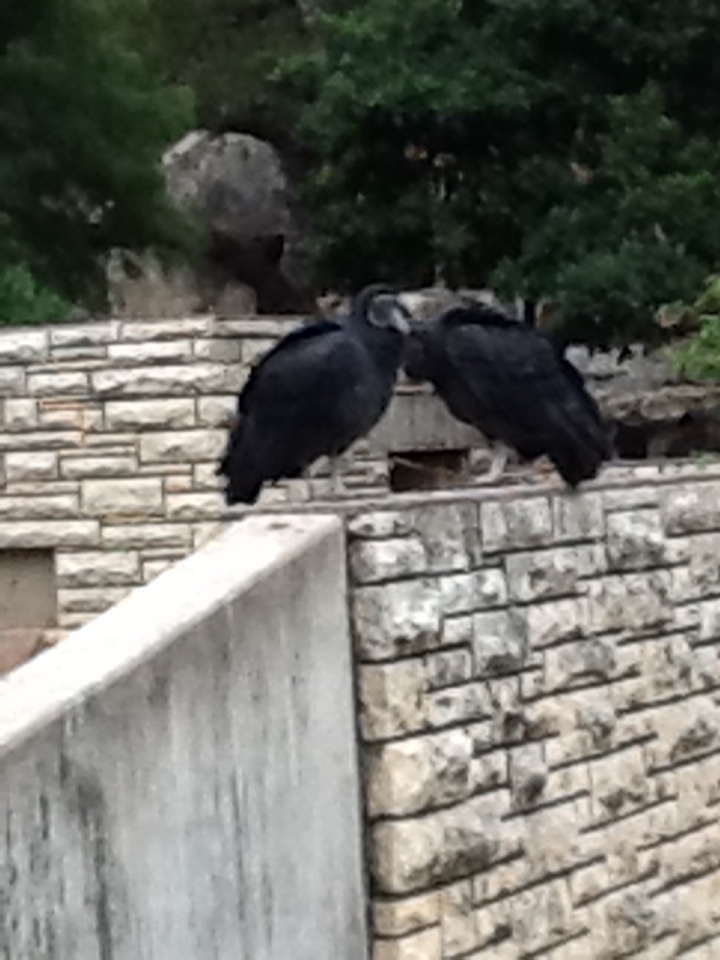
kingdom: Animalia
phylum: Chordata
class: Aves
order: Accipitriformes
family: Cathartidae
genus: Coragyps
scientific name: Coragyps atratus
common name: Black vulture
